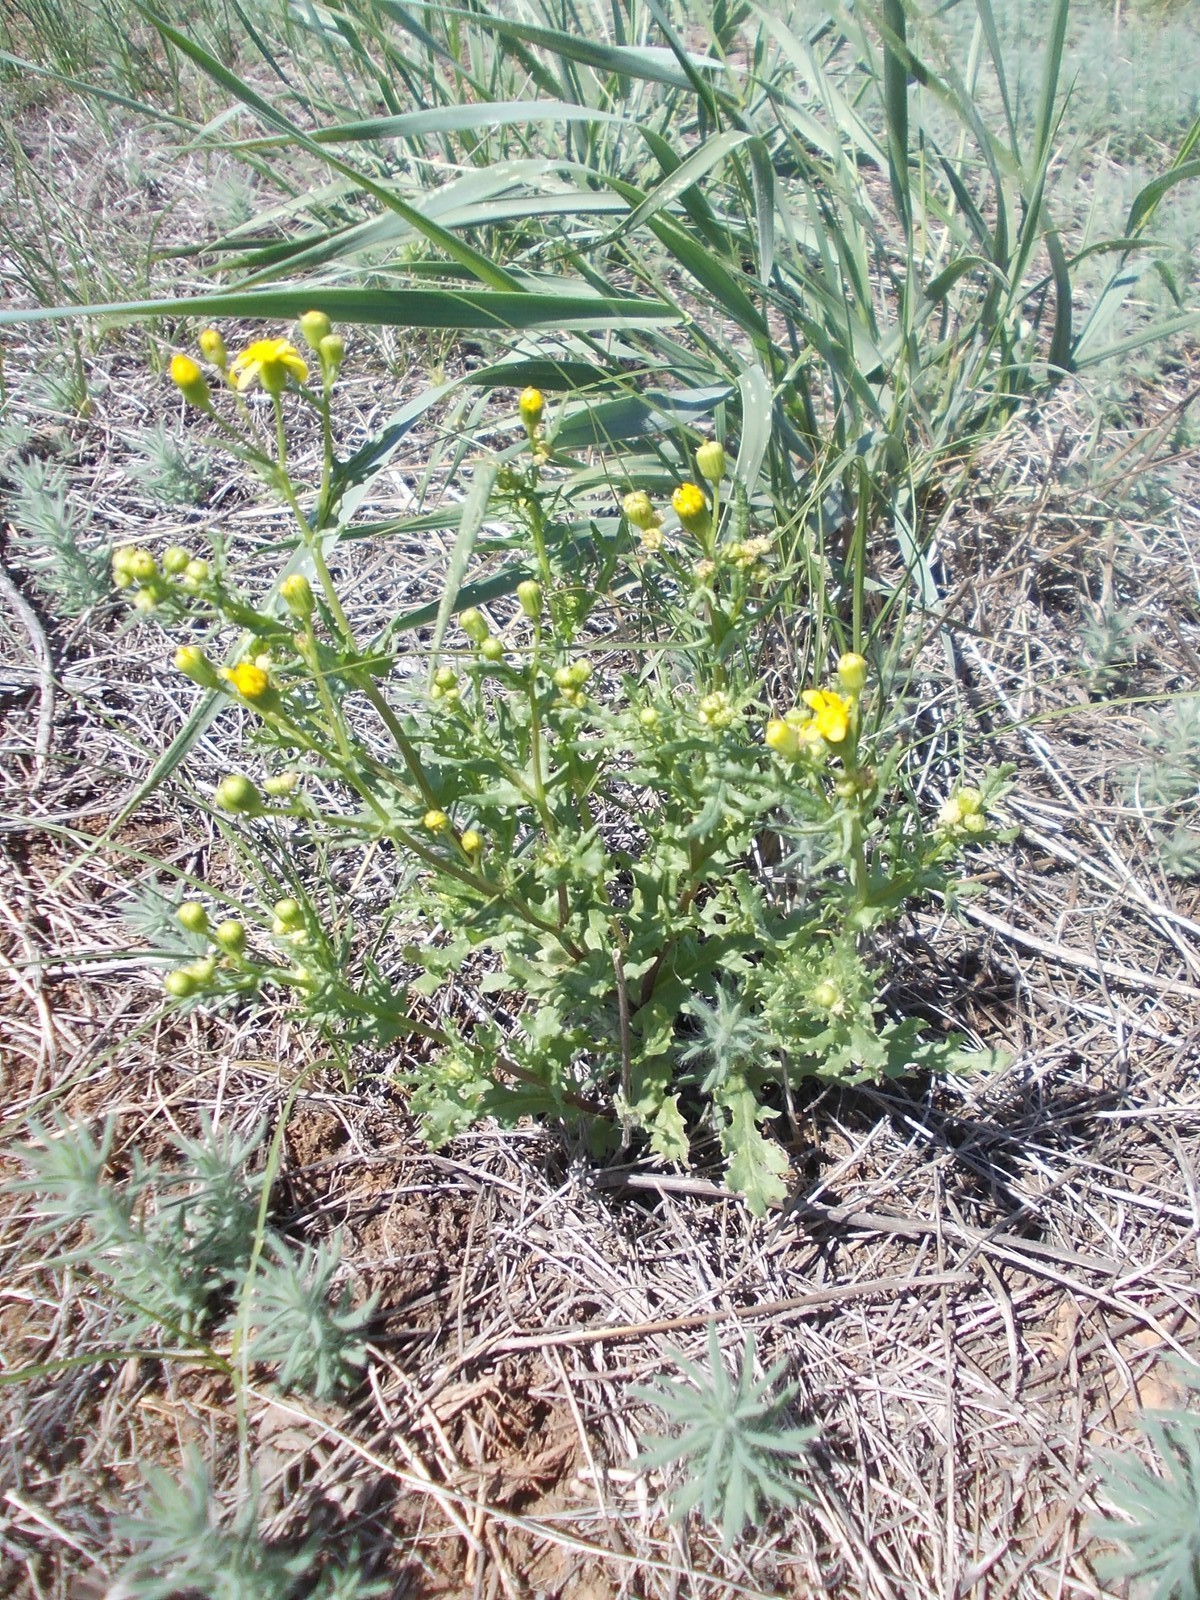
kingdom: Plantae
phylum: Tracheophyta
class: Magnoliopsida
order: Asterales
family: Asteraceae
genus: Senecio
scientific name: Senecio vernalis
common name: Eastern groundsel
